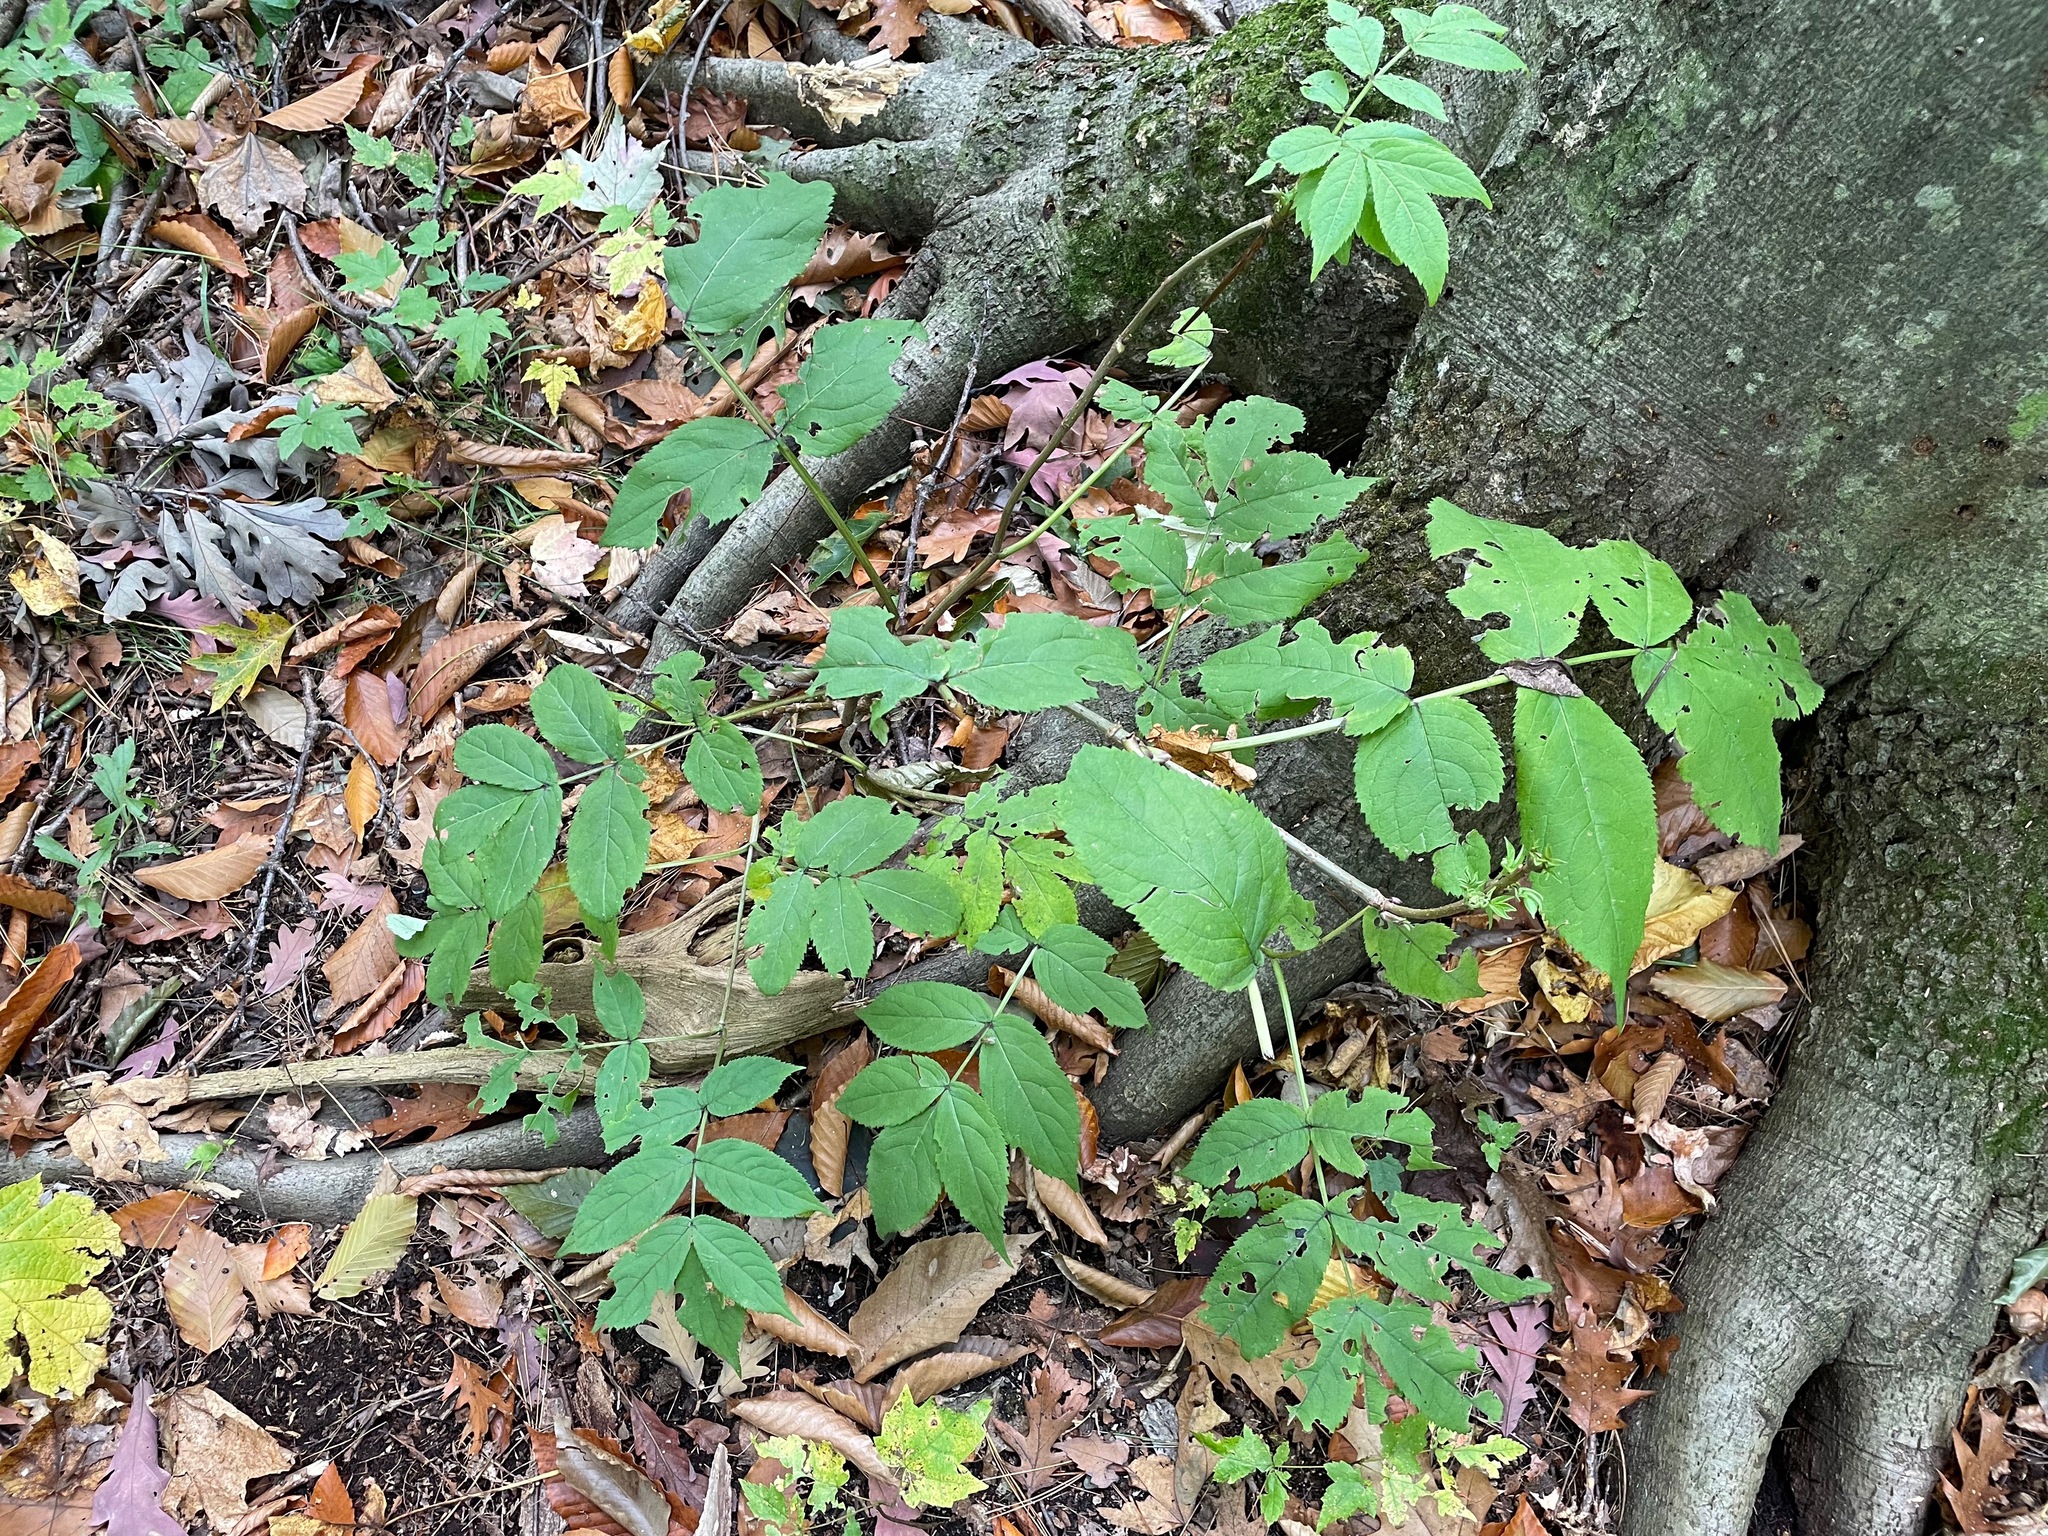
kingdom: Plantae
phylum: Tracheophyta
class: Magnoliopsida
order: Dipsacales
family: Viburnaceae
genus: Sambucus
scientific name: Sambucus racemosa
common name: Red-berried elder
